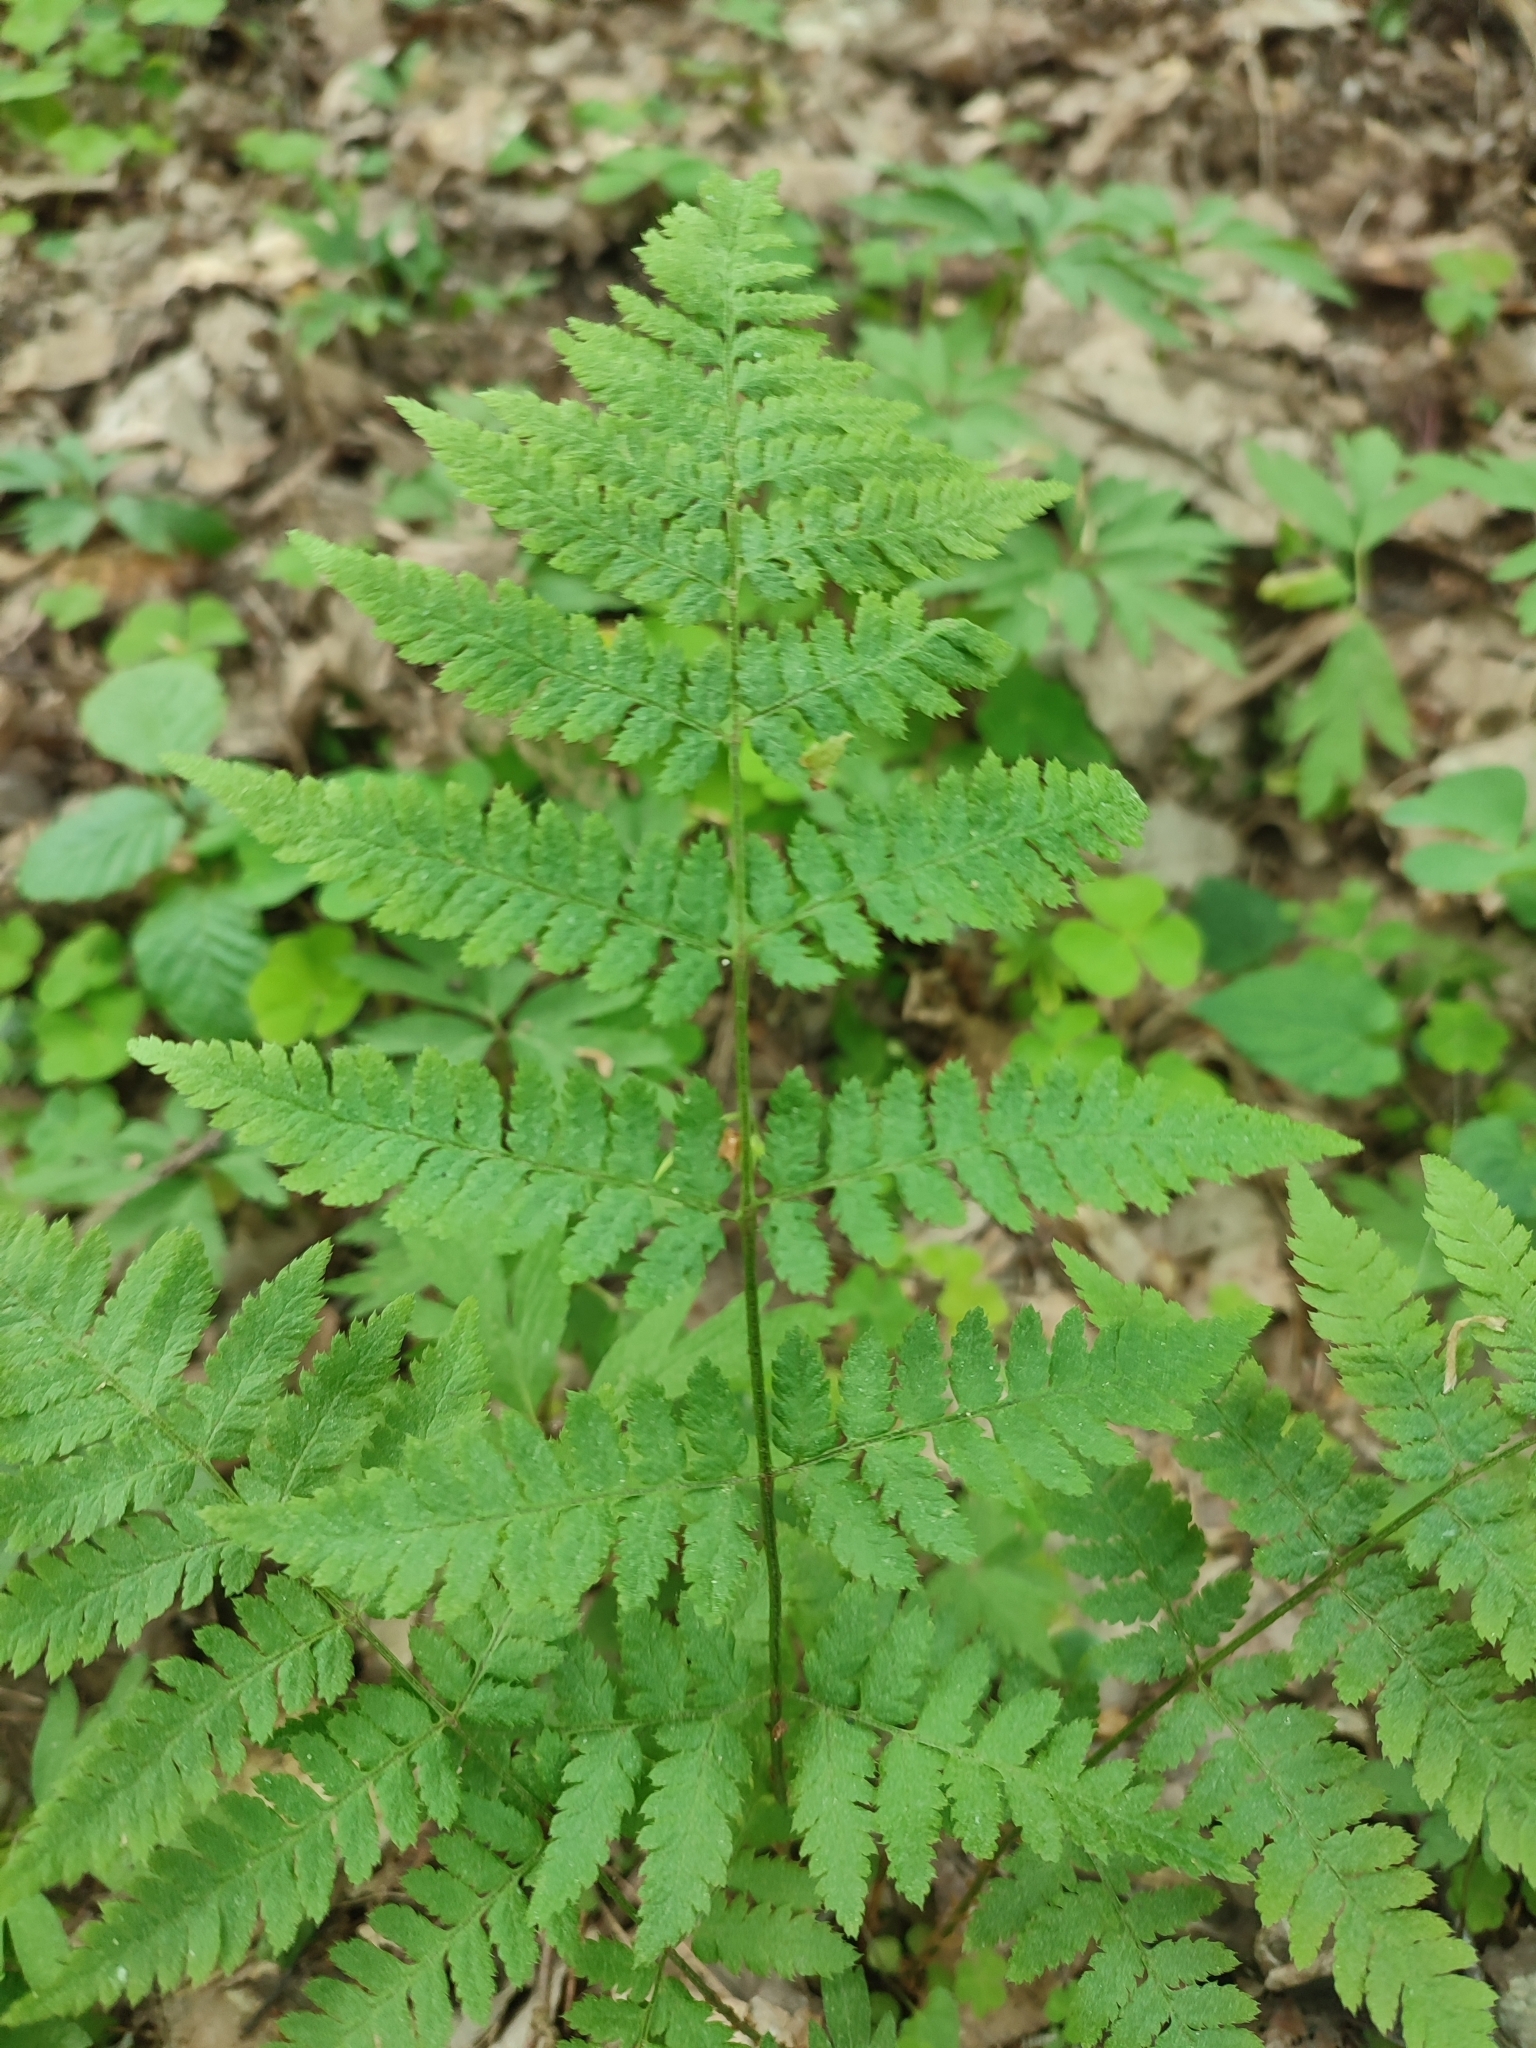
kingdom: Plantae
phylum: Tracheophyta
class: Polypodiopsida
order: Polypodiales
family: Dryopteridaceae
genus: Dryopteris
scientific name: Dryopteris carthusiana
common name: Narrow buckler-fern
